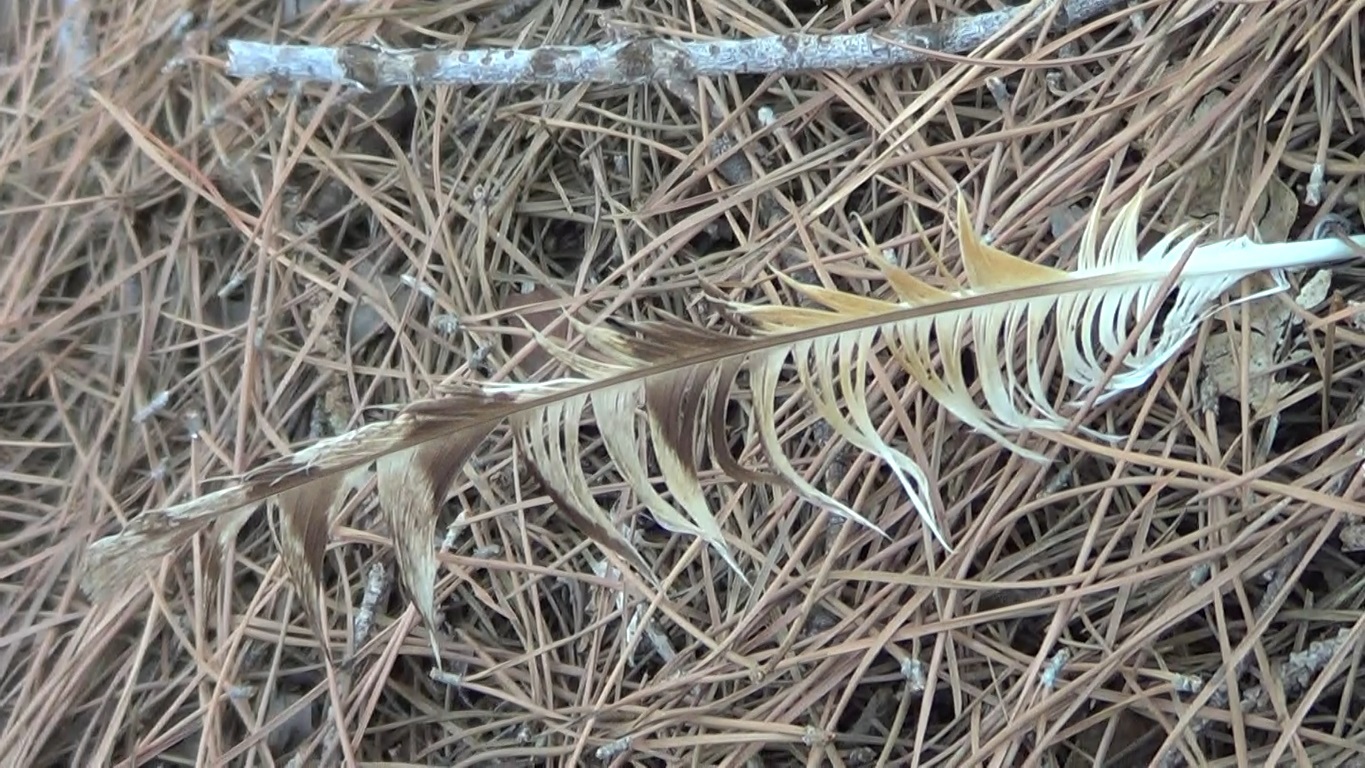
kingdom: Animalia
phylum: Chordata
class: Aves
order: Strigiformes
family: Strigidae
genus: Asio
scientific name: Asio otus
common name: Long-eared owl
